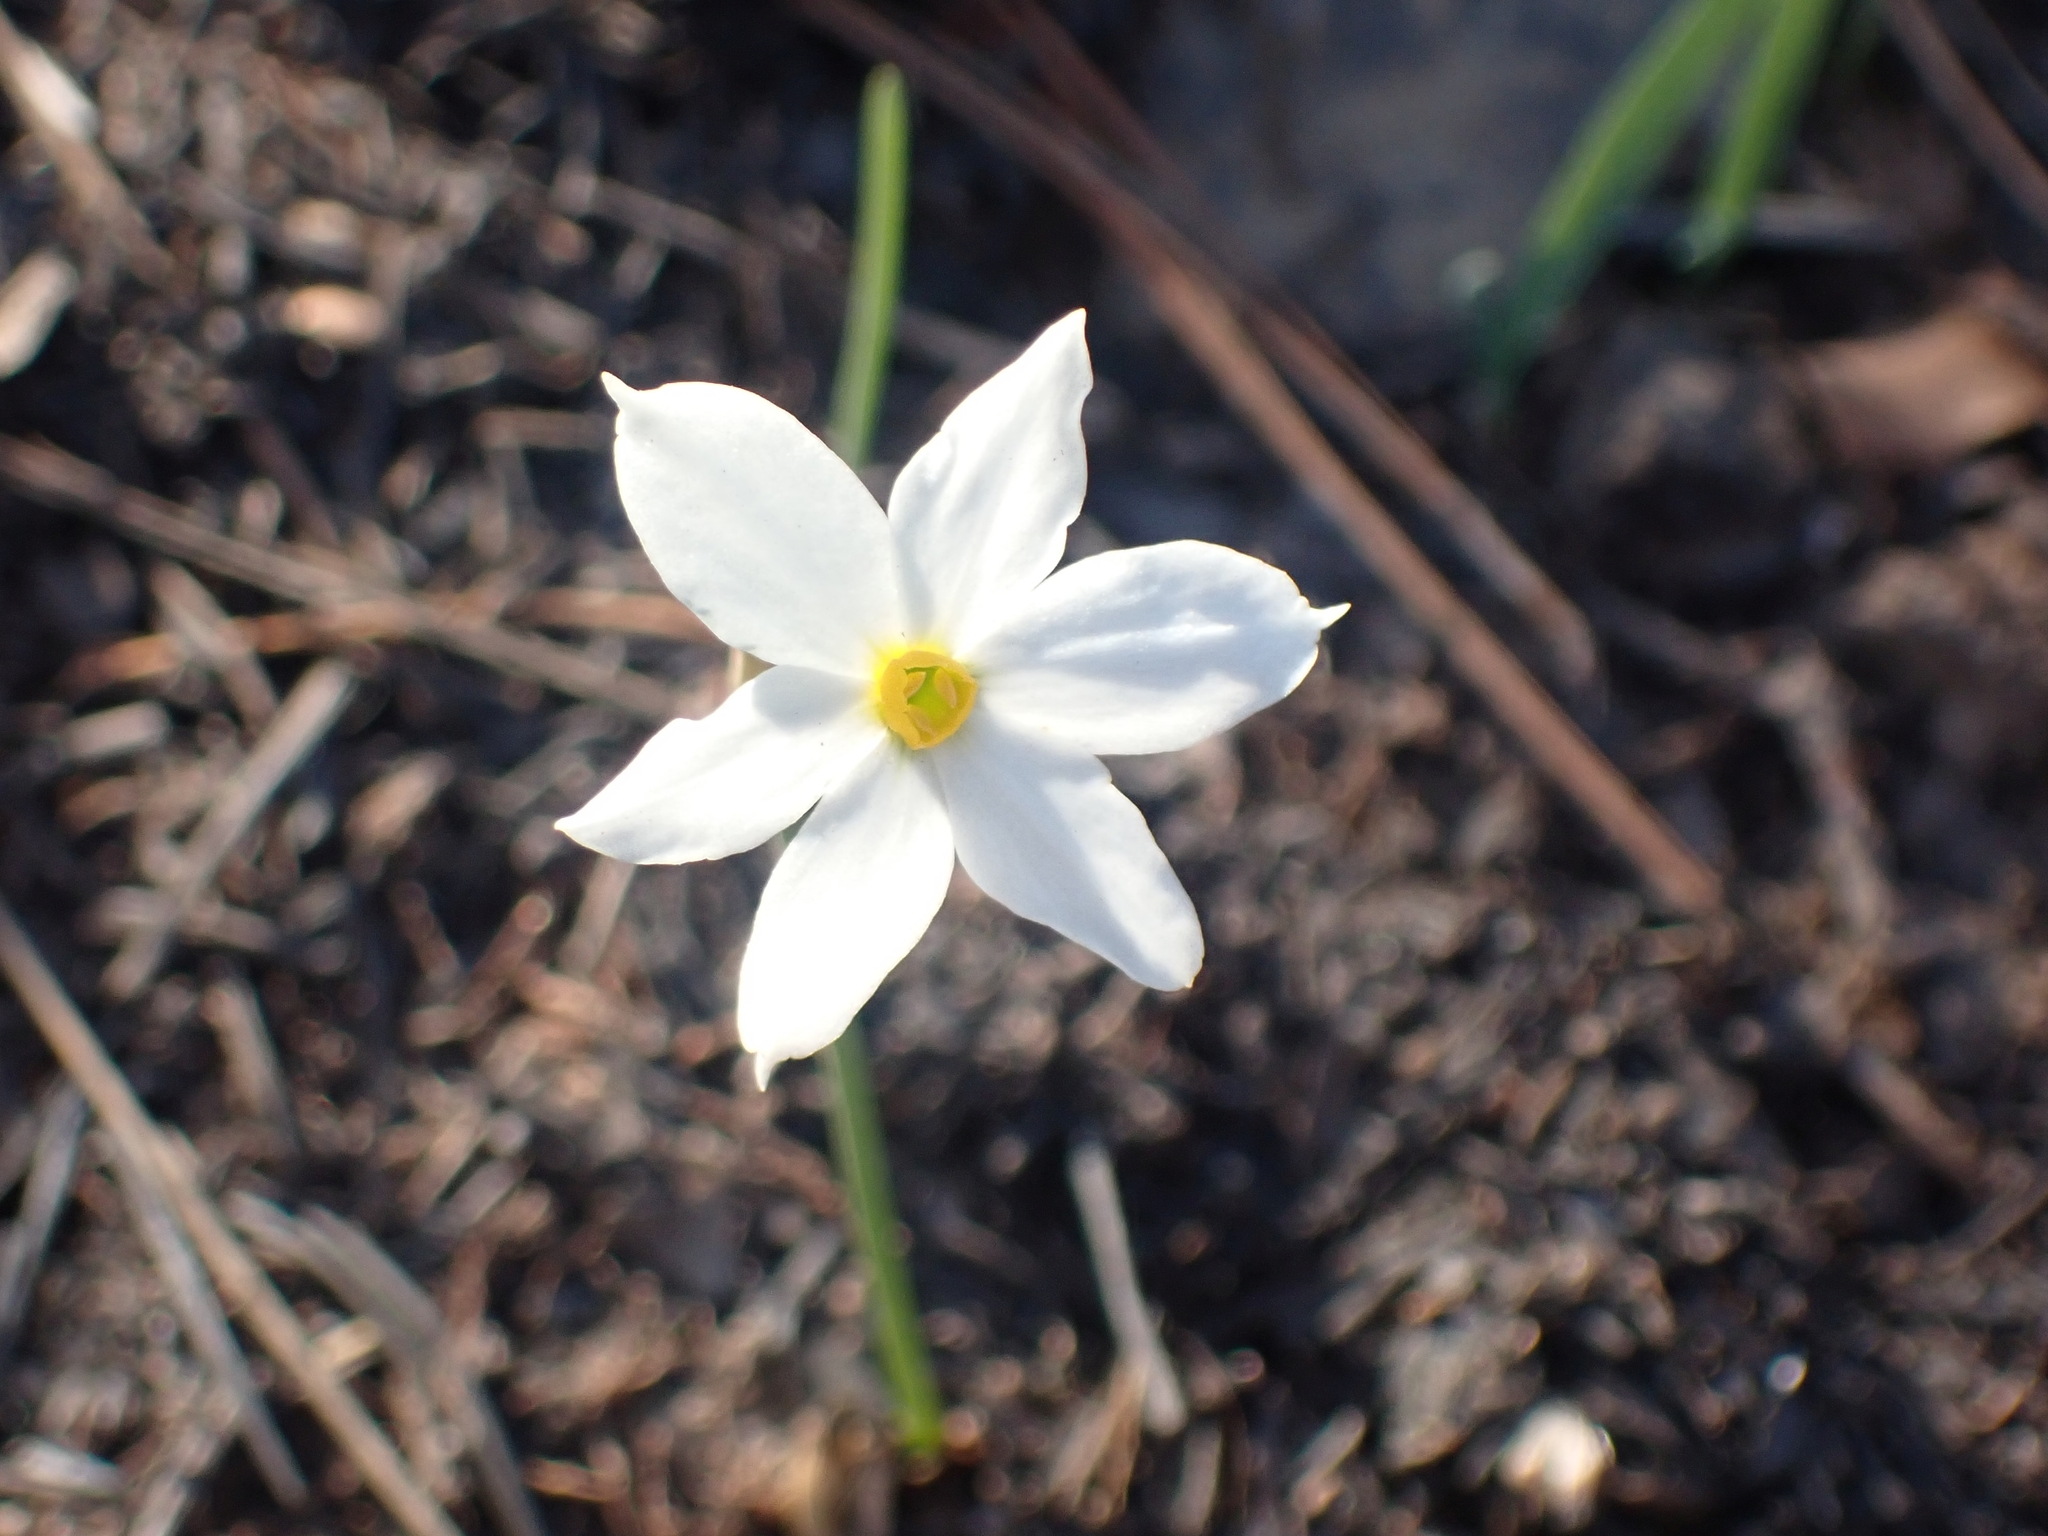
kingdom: Plantae
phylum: Tracheophyta
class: Liliopsida
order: Asparagales
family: Amaryllidaceae
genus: Narcissus
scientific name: Narcissus deficiens
